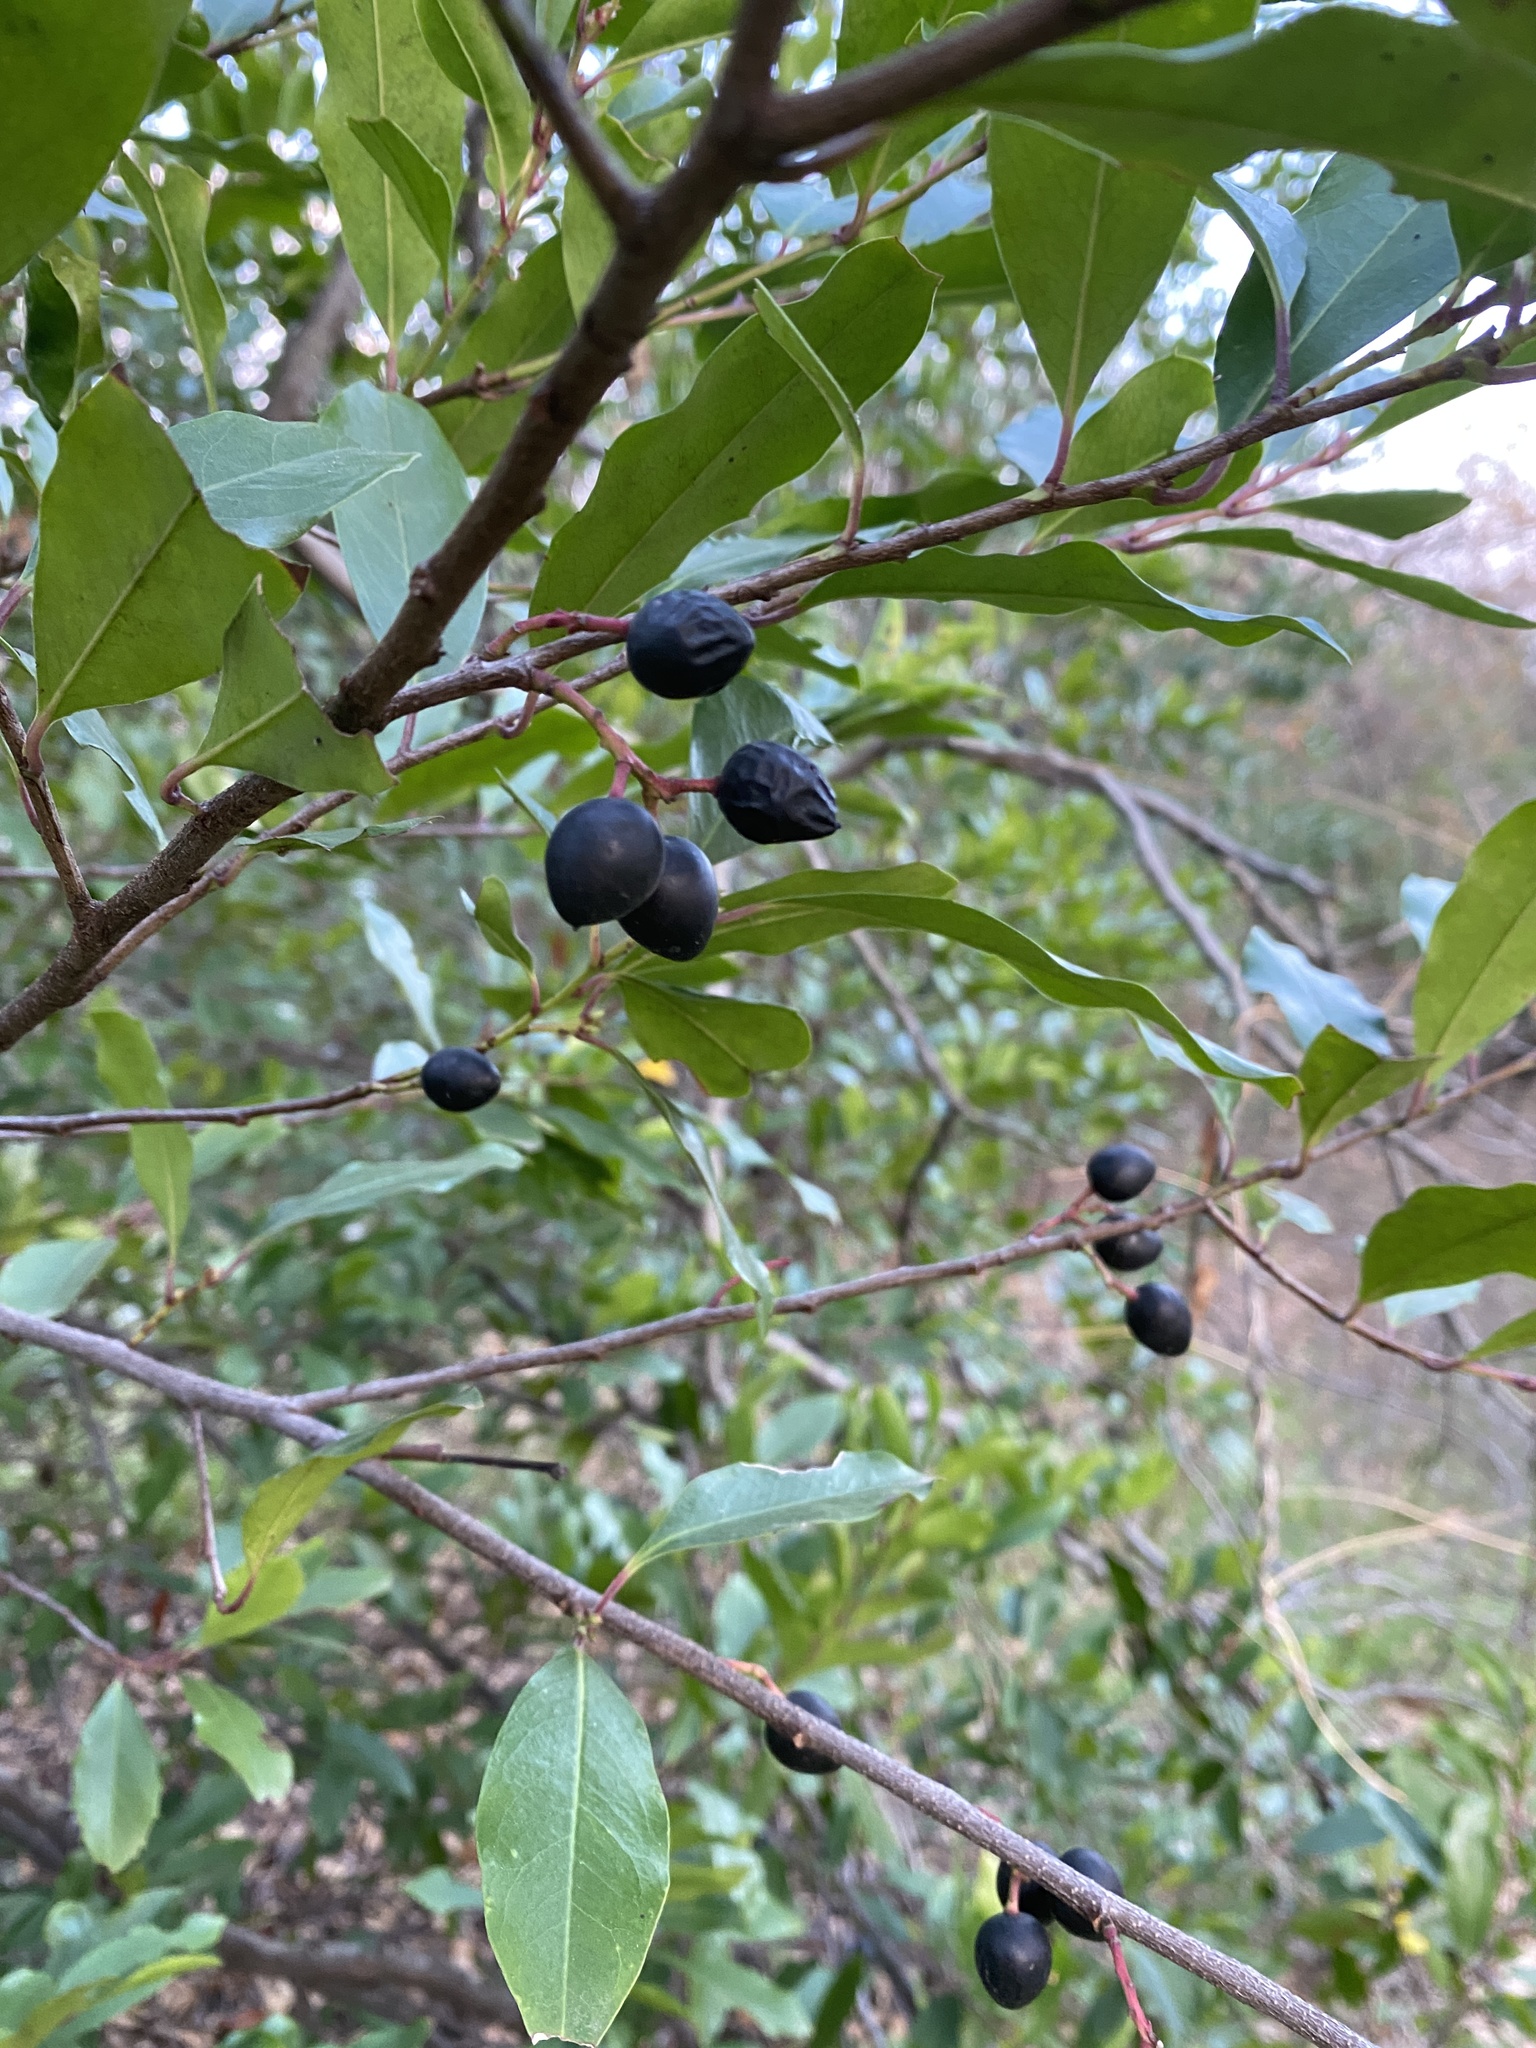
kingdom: Plantae
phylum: Tracheophyta
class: Magnoliopsida
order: Rosales
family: Rosaceae
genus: Prunus
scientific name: Prunus caroliniana
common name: Carolina laurel cherry
